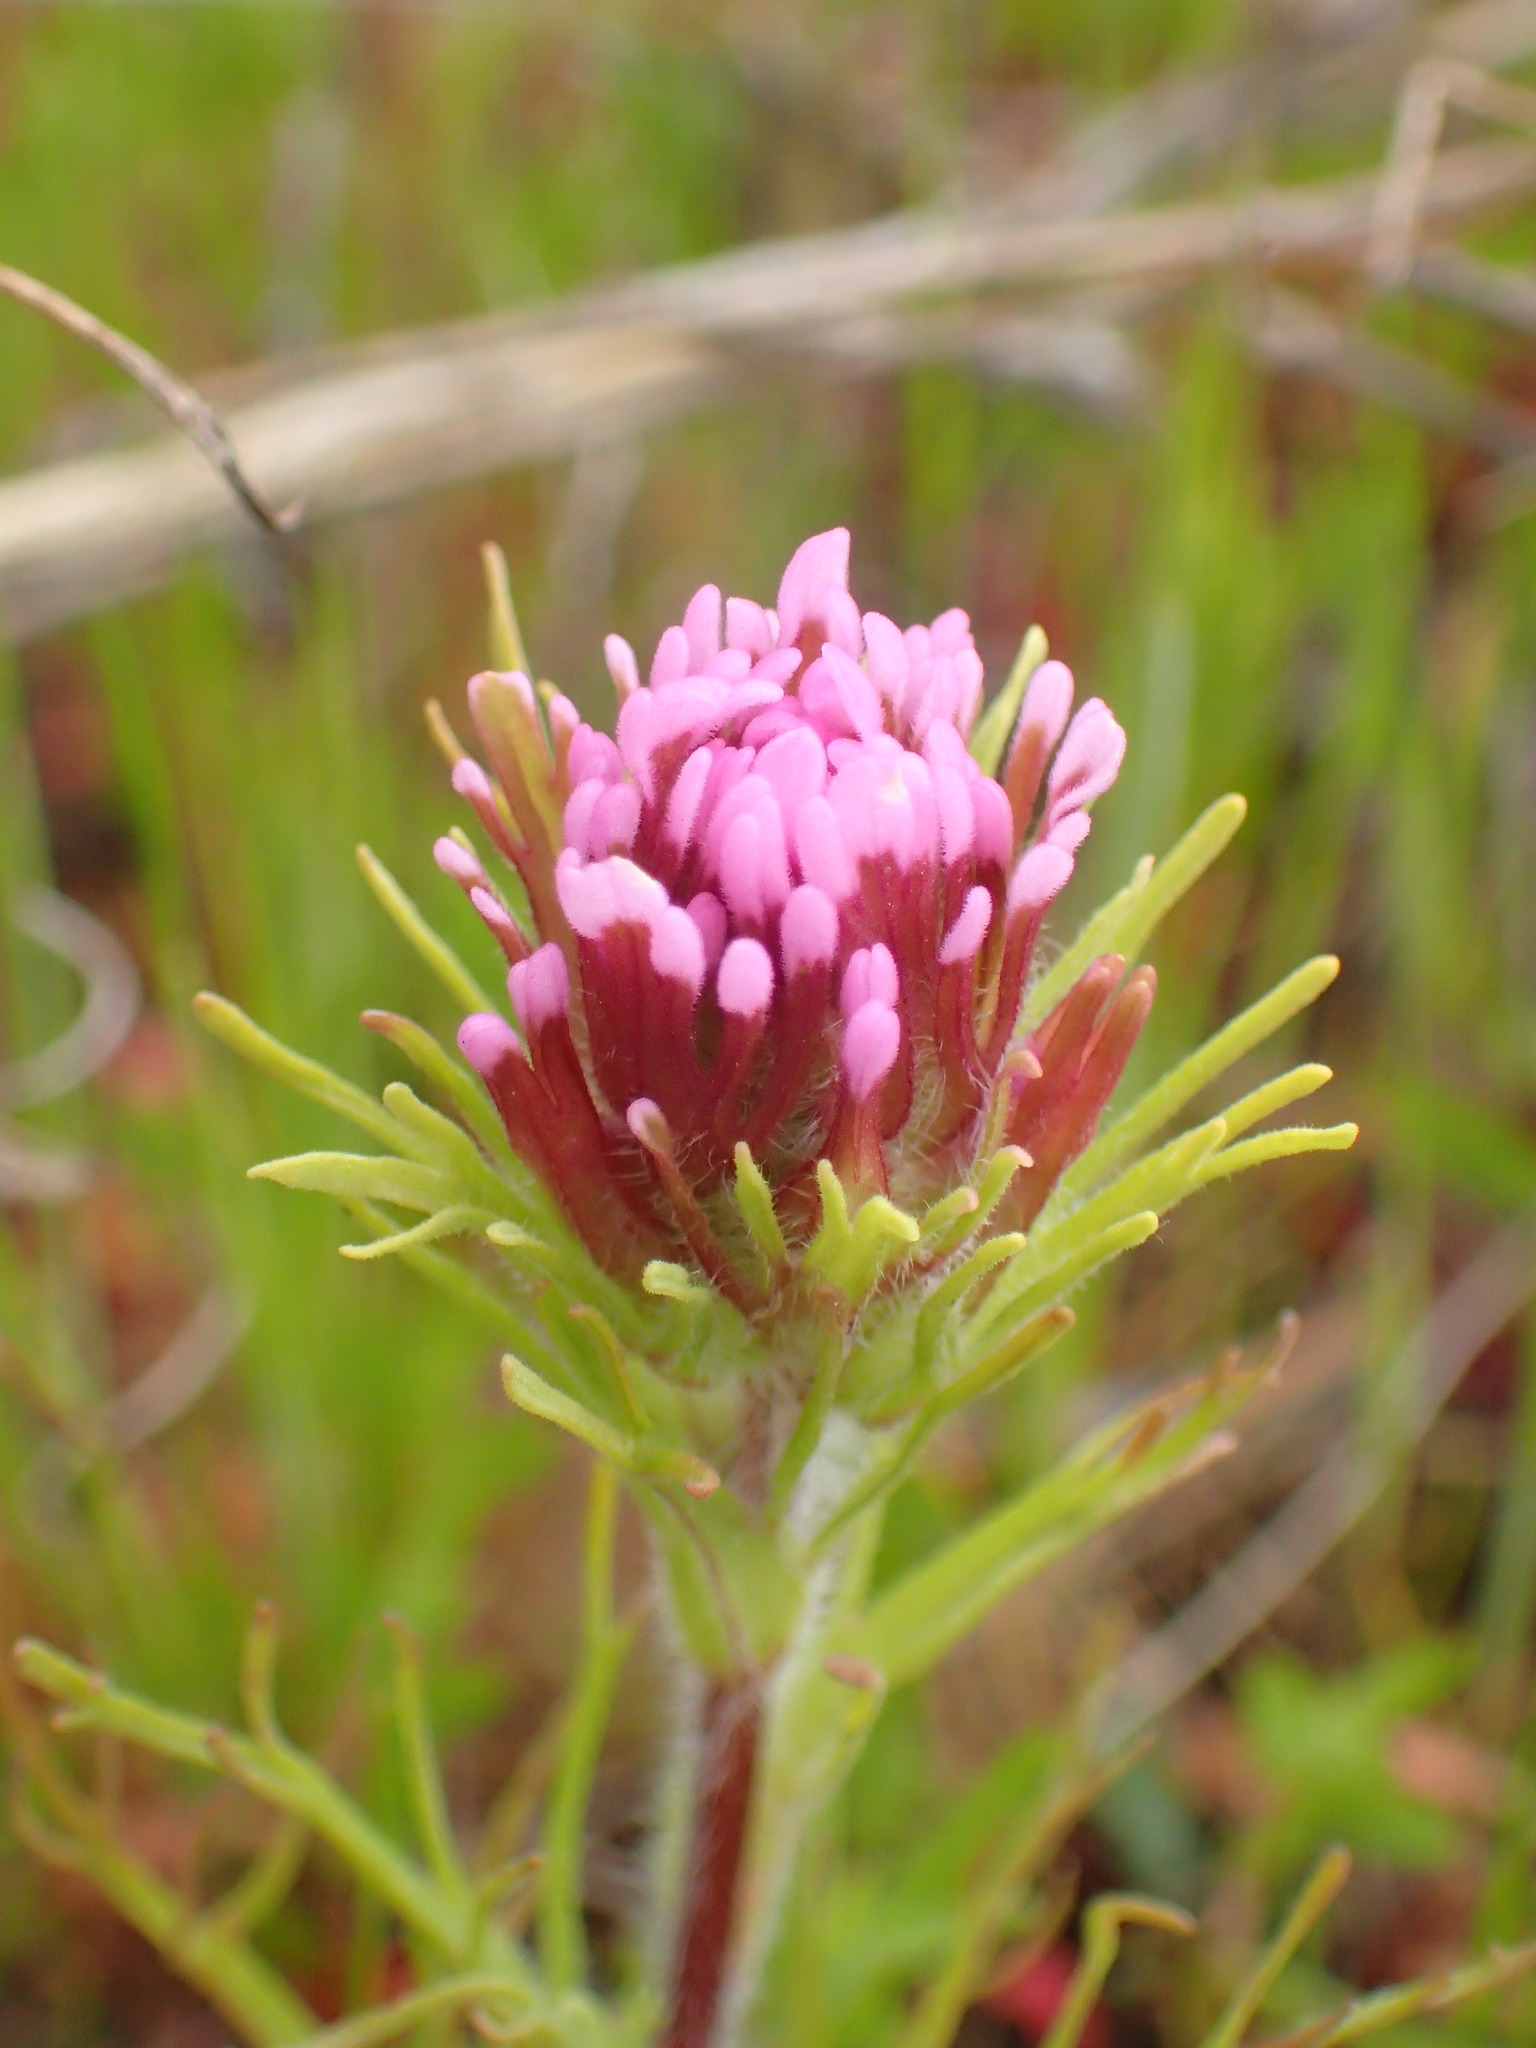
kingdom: Plantae
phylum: Tracheophyta
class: Magnoliopsida
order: Lamiales
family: Orobanchaceae
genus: Castilleja
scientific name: Castilleja exserta
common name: Purple owl-clover
